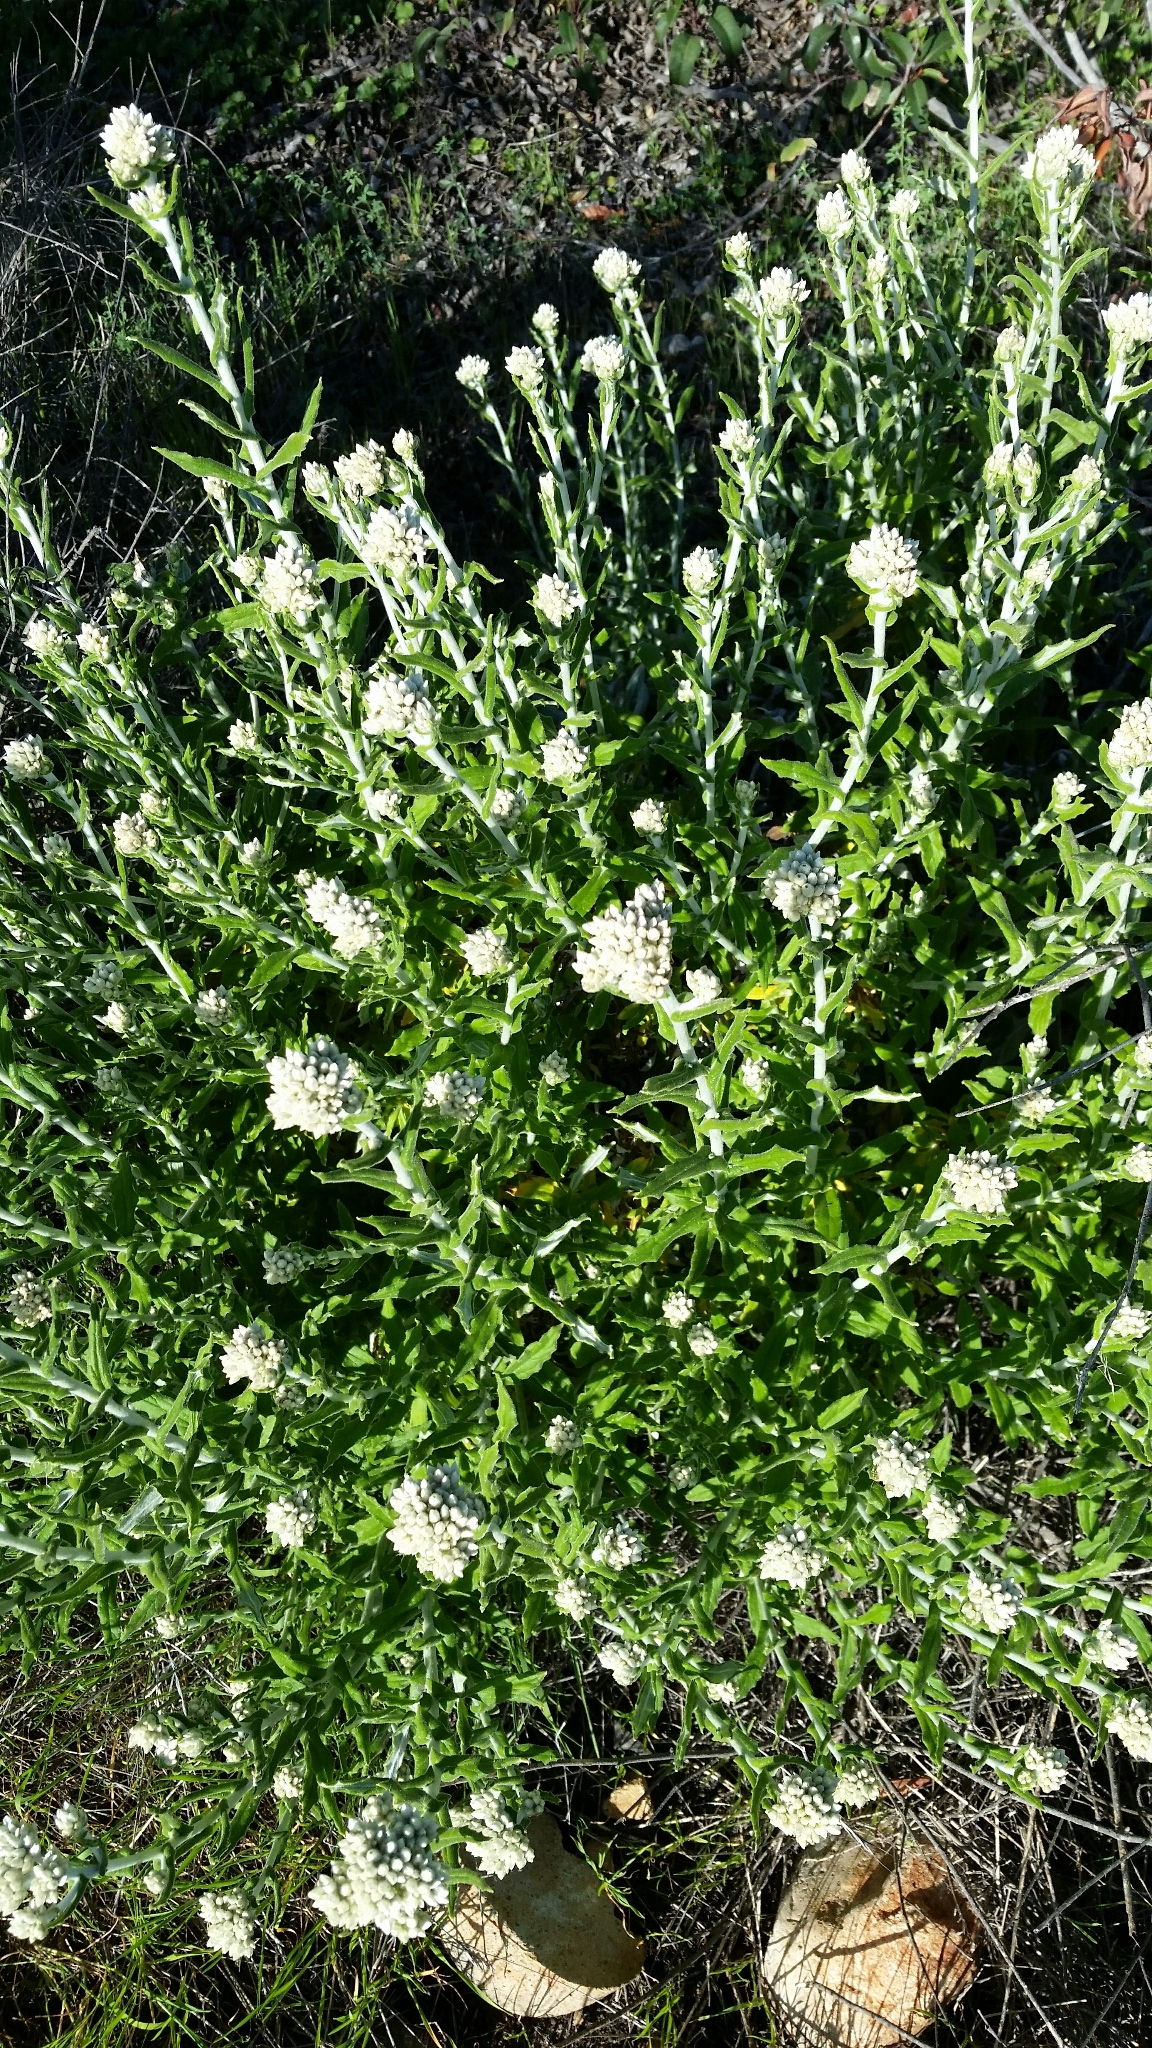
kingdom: Plantae
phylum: Tracheophyta
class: Magnoliopsida
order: Asterales
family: Asteraceae
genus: Pseudognaphalium
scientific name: Pseudognaphalium biolettii
